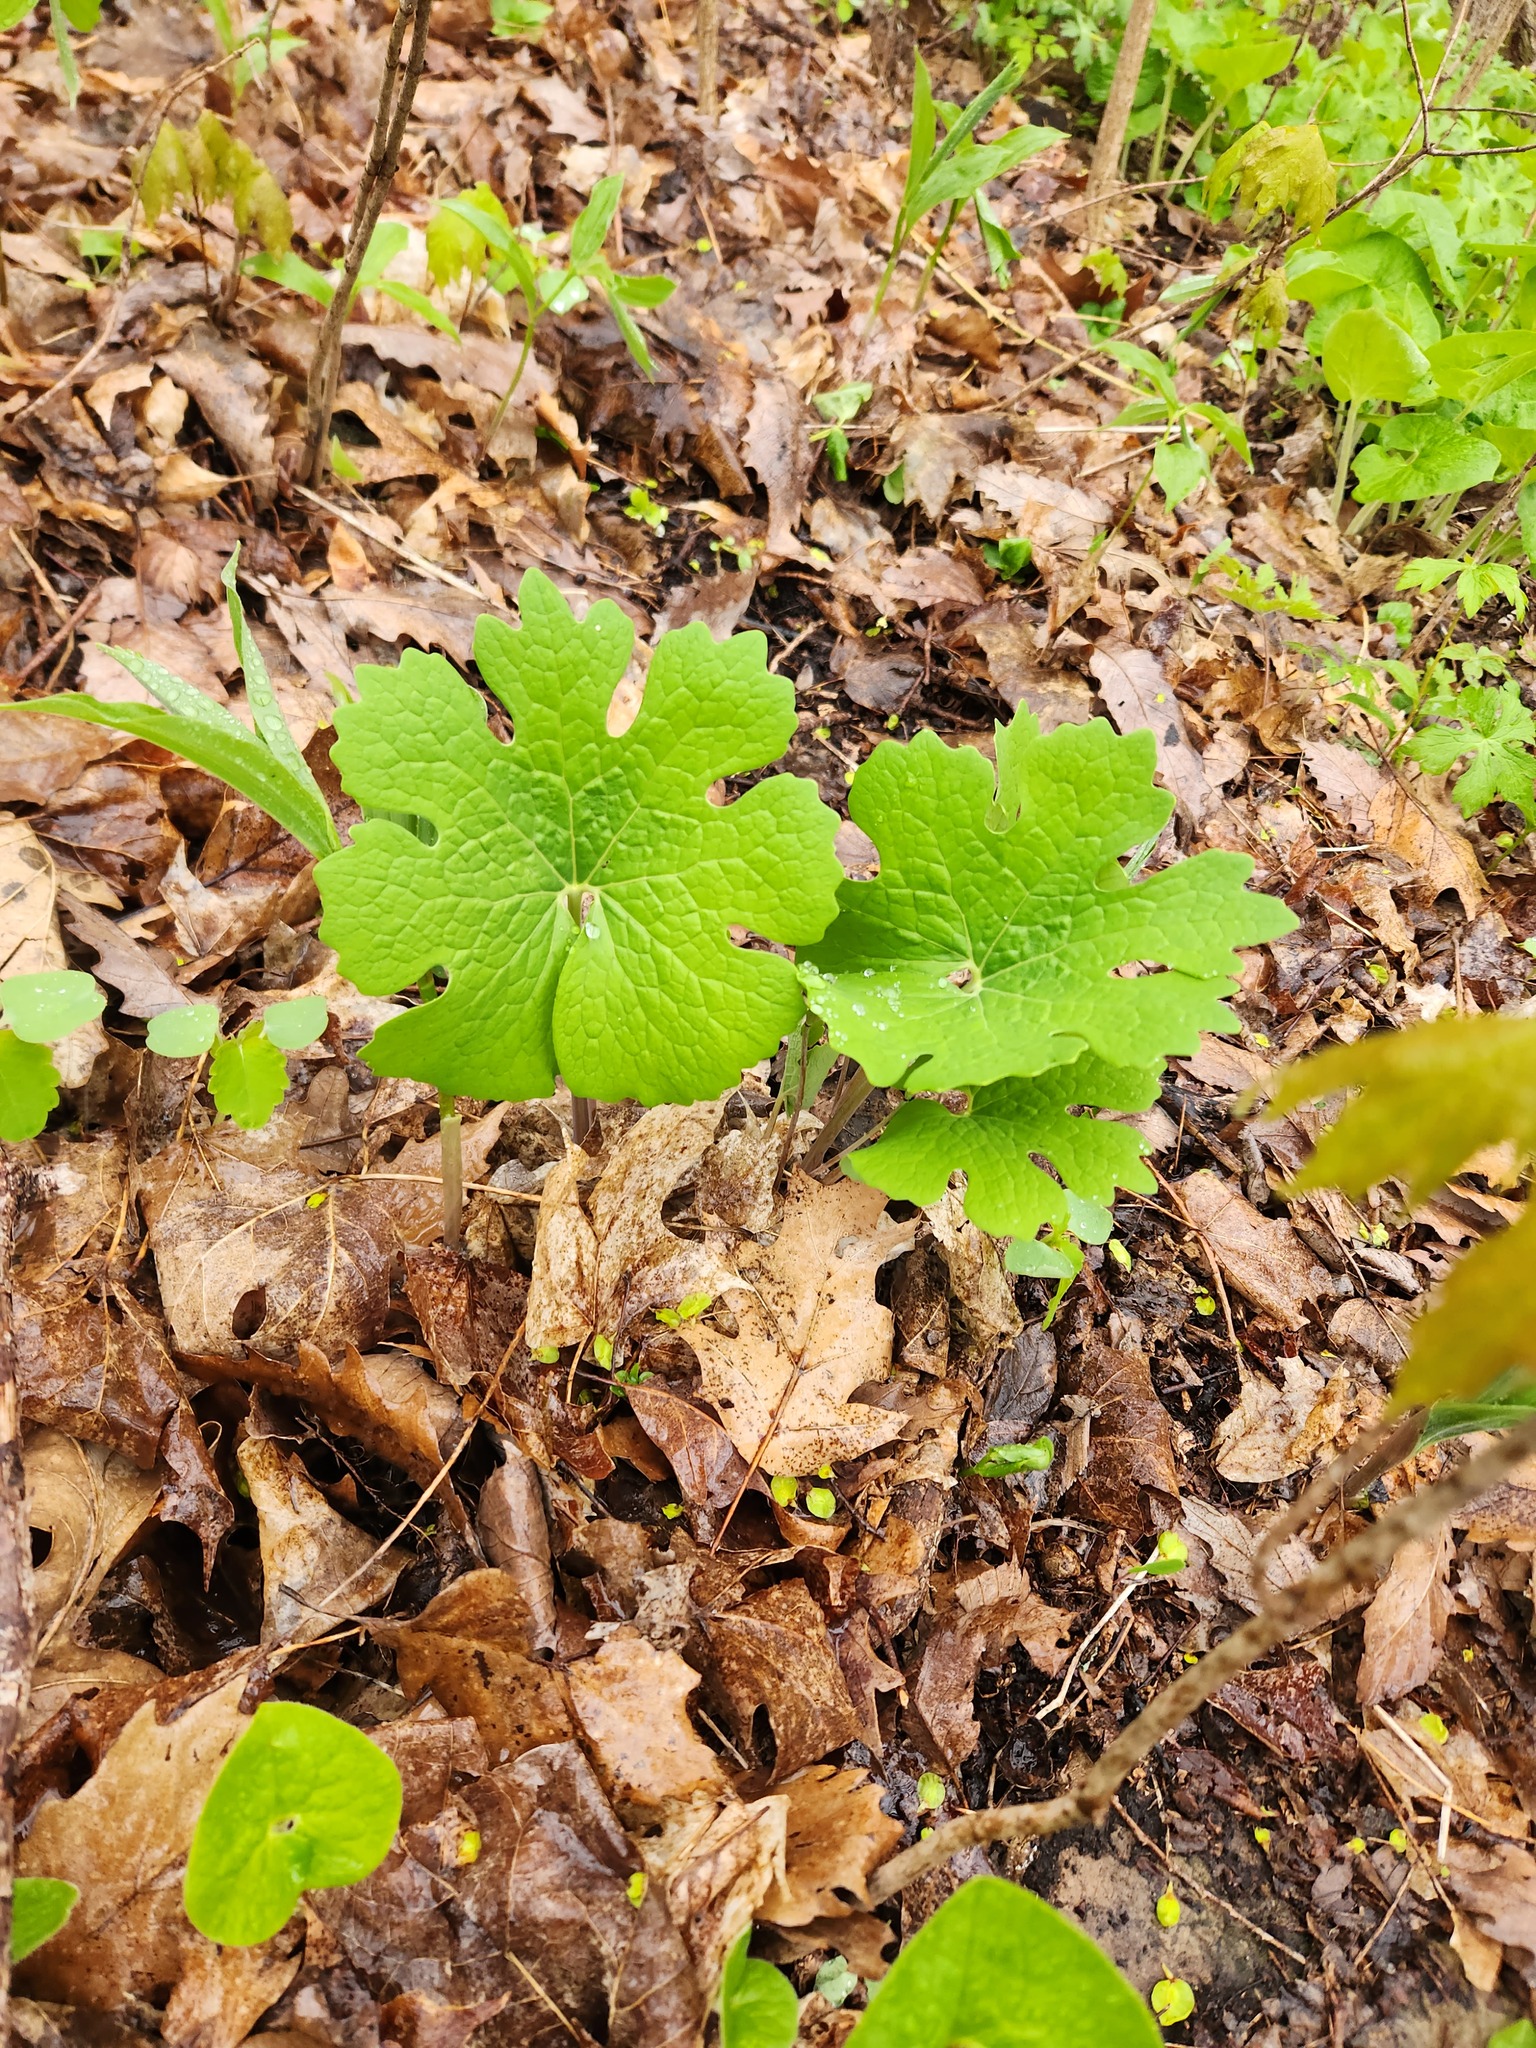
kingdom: Plantae
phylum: Tracheophyta
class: Magnoliopsida
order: Ranunculales
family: Papaveraceae
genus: Sanguinaria
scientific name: Sanguinaria canadensis
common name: Bloodroot
